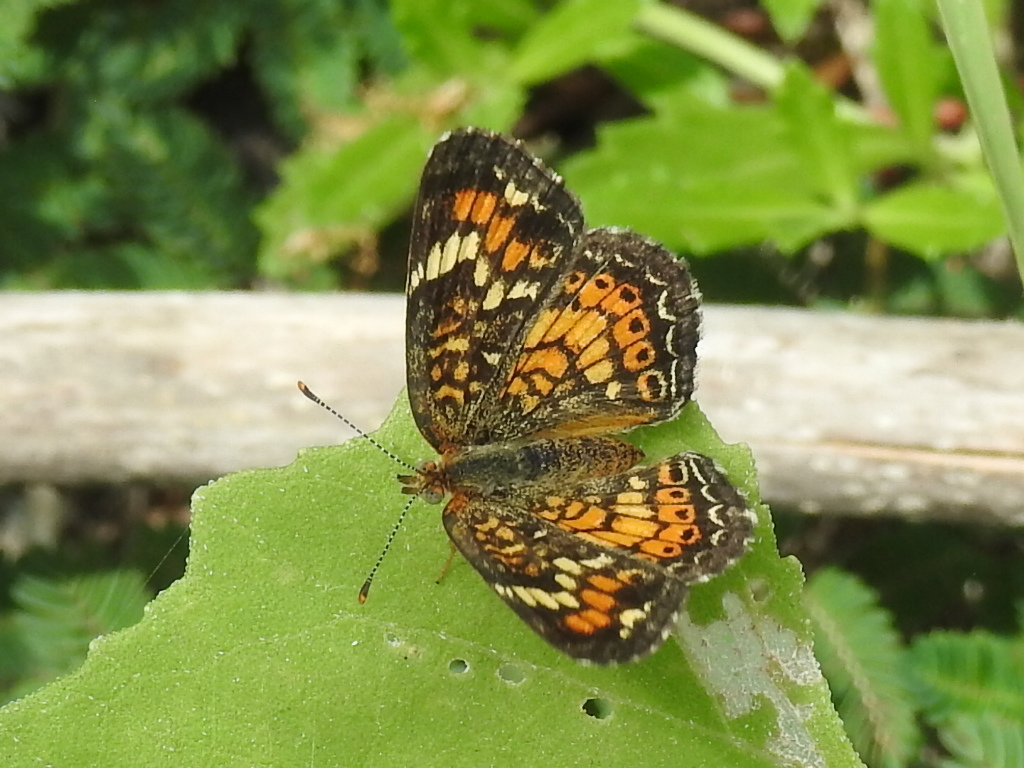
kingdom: Animalia
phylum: Arthropoda
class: Insecta
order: Lepidoptera
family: Nymphalidae
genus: Phyciodes
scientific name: Phyciodes phaon
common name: Phaon crescent
